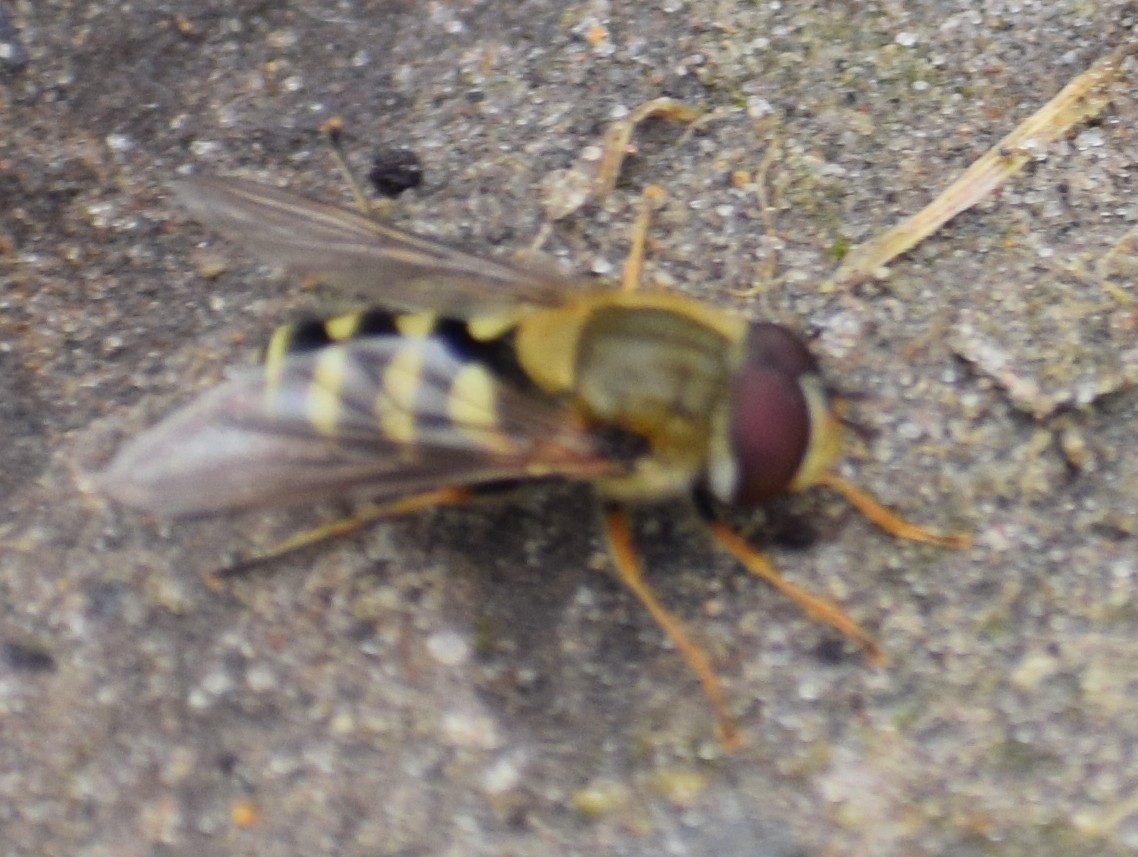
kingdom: Animalia
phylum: Arthropoda
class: Insecta
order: Diptera
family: Syrphidae
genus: Syrphus
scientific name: Syrphus
